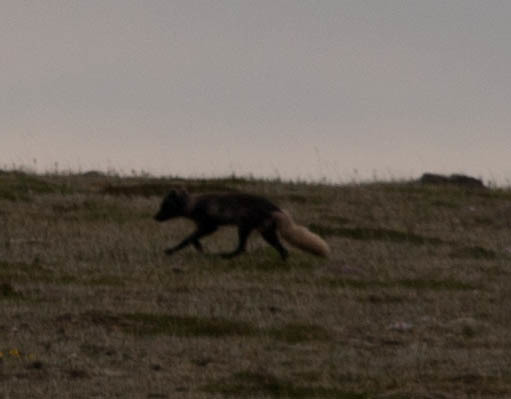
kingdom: Animalia
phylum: Chordata
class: Mammalia
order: Carnivora
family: Canidae
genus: Vulpes
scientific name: Vulpes lagopus
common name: Arctic fox
